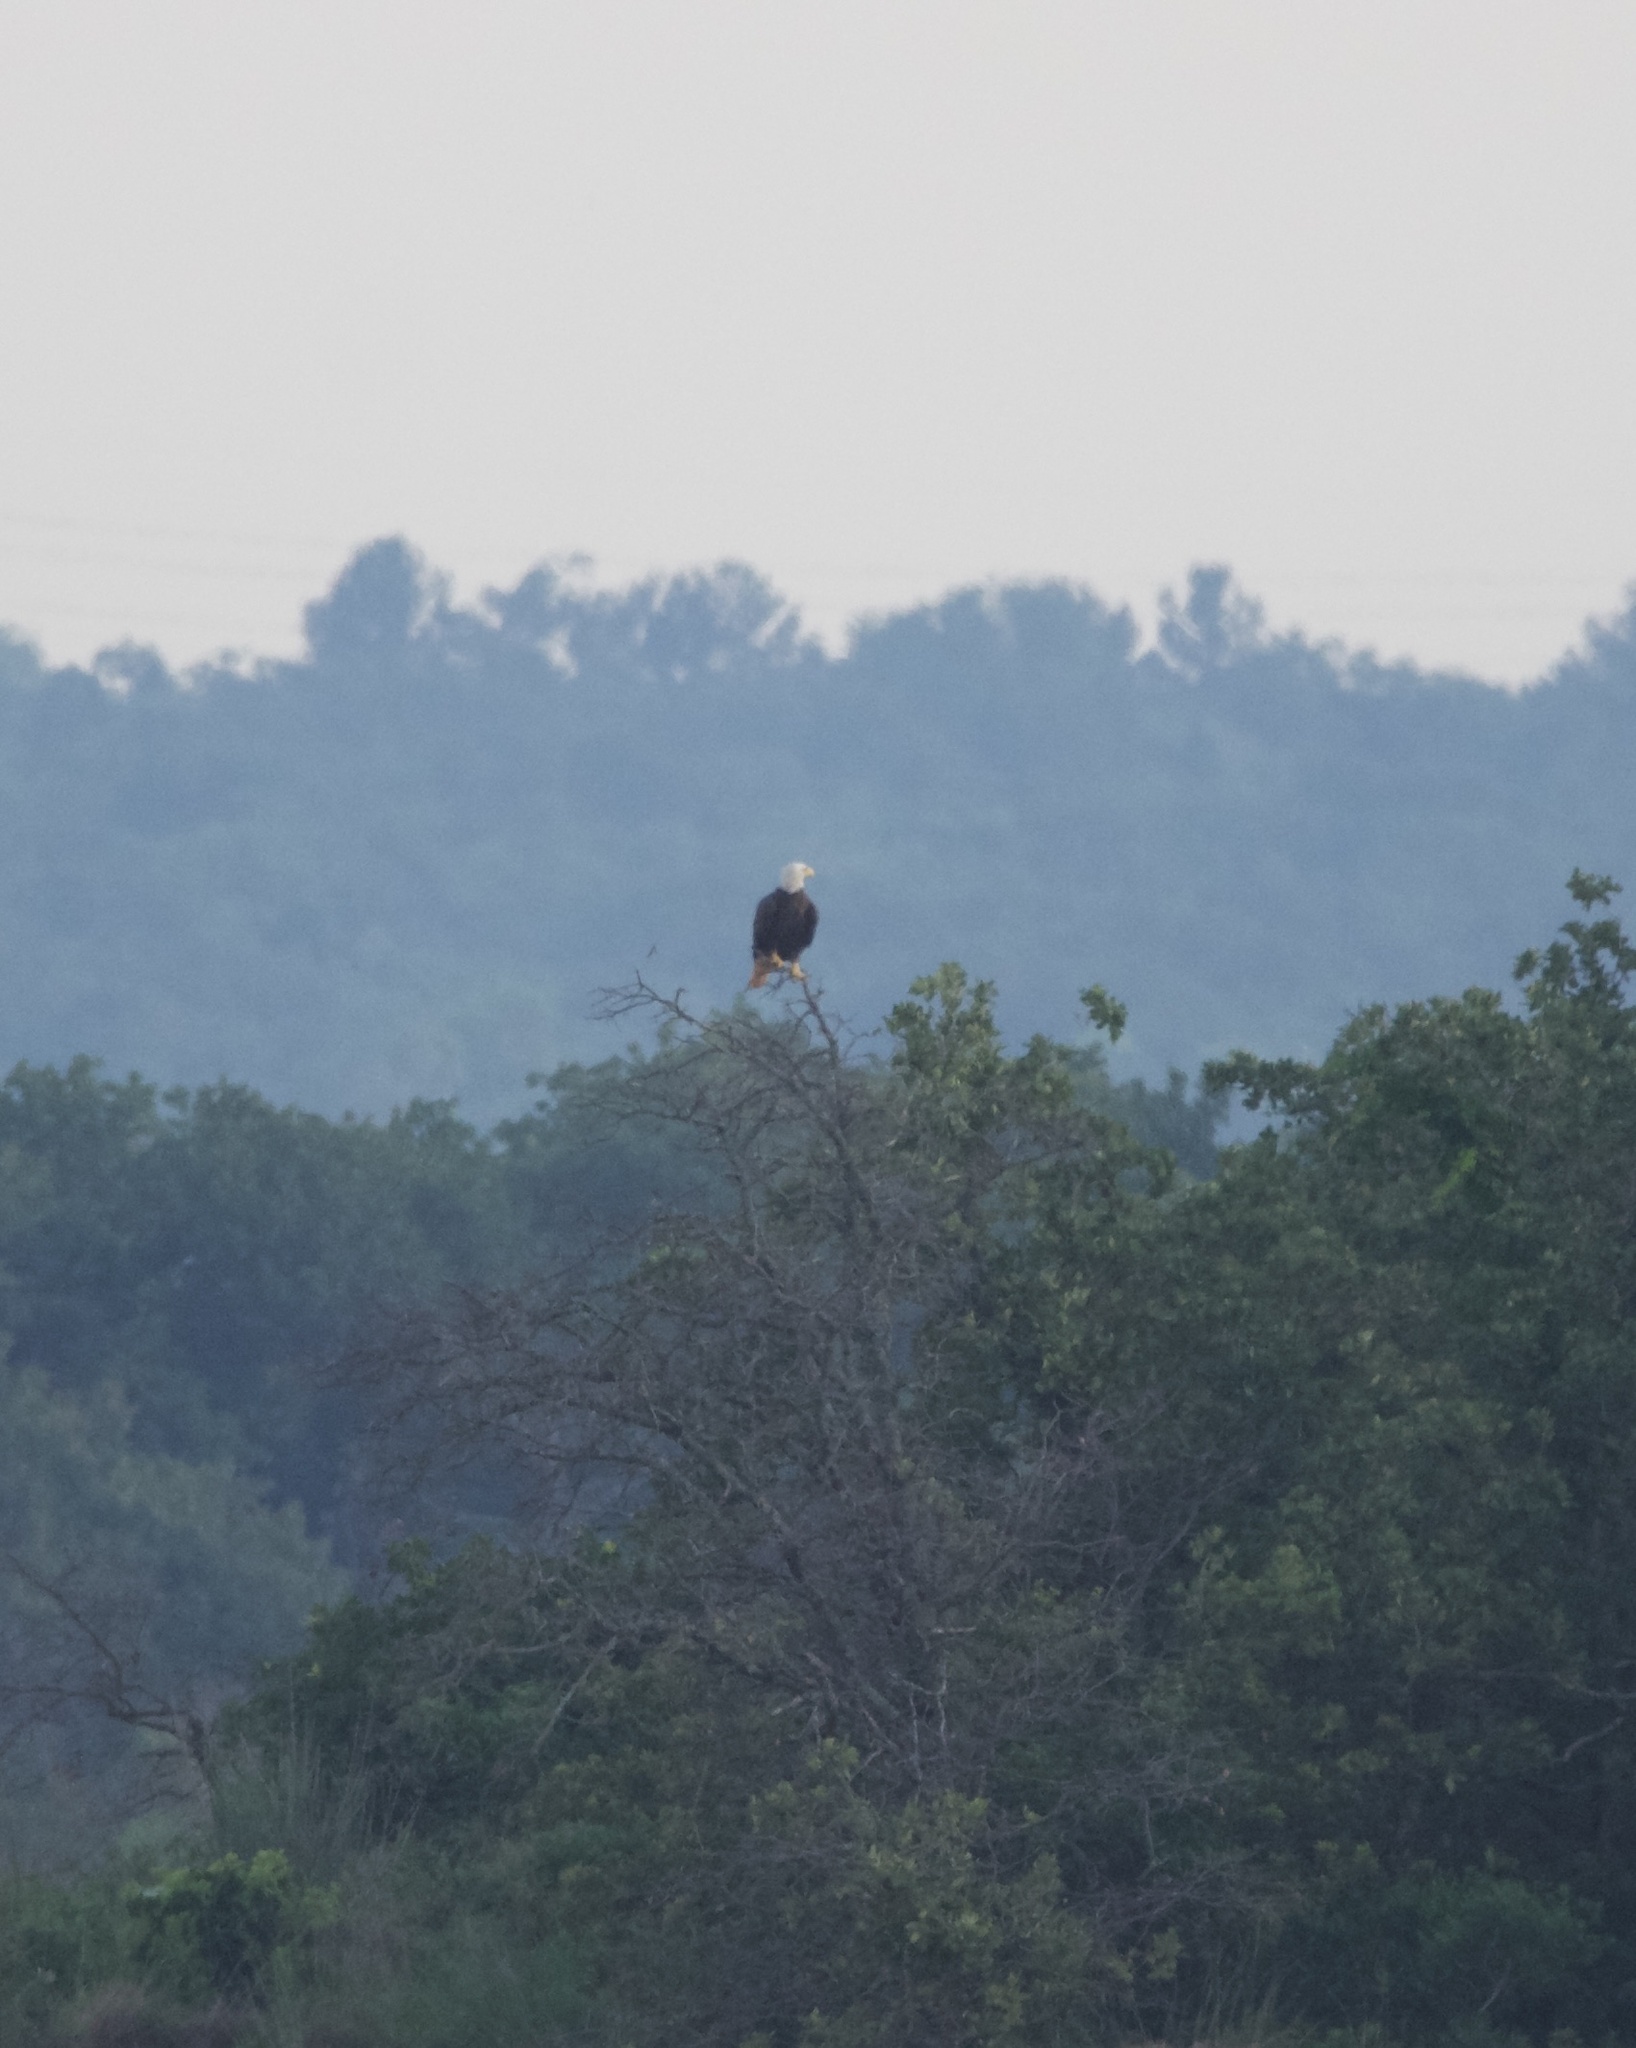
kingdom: Animalia
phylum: Chordata
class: Aves
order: Accipitriformes
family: Accipitridae
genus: Haliaeetus
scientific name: Haliaeetus leucocephalus
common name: Bald eagle
